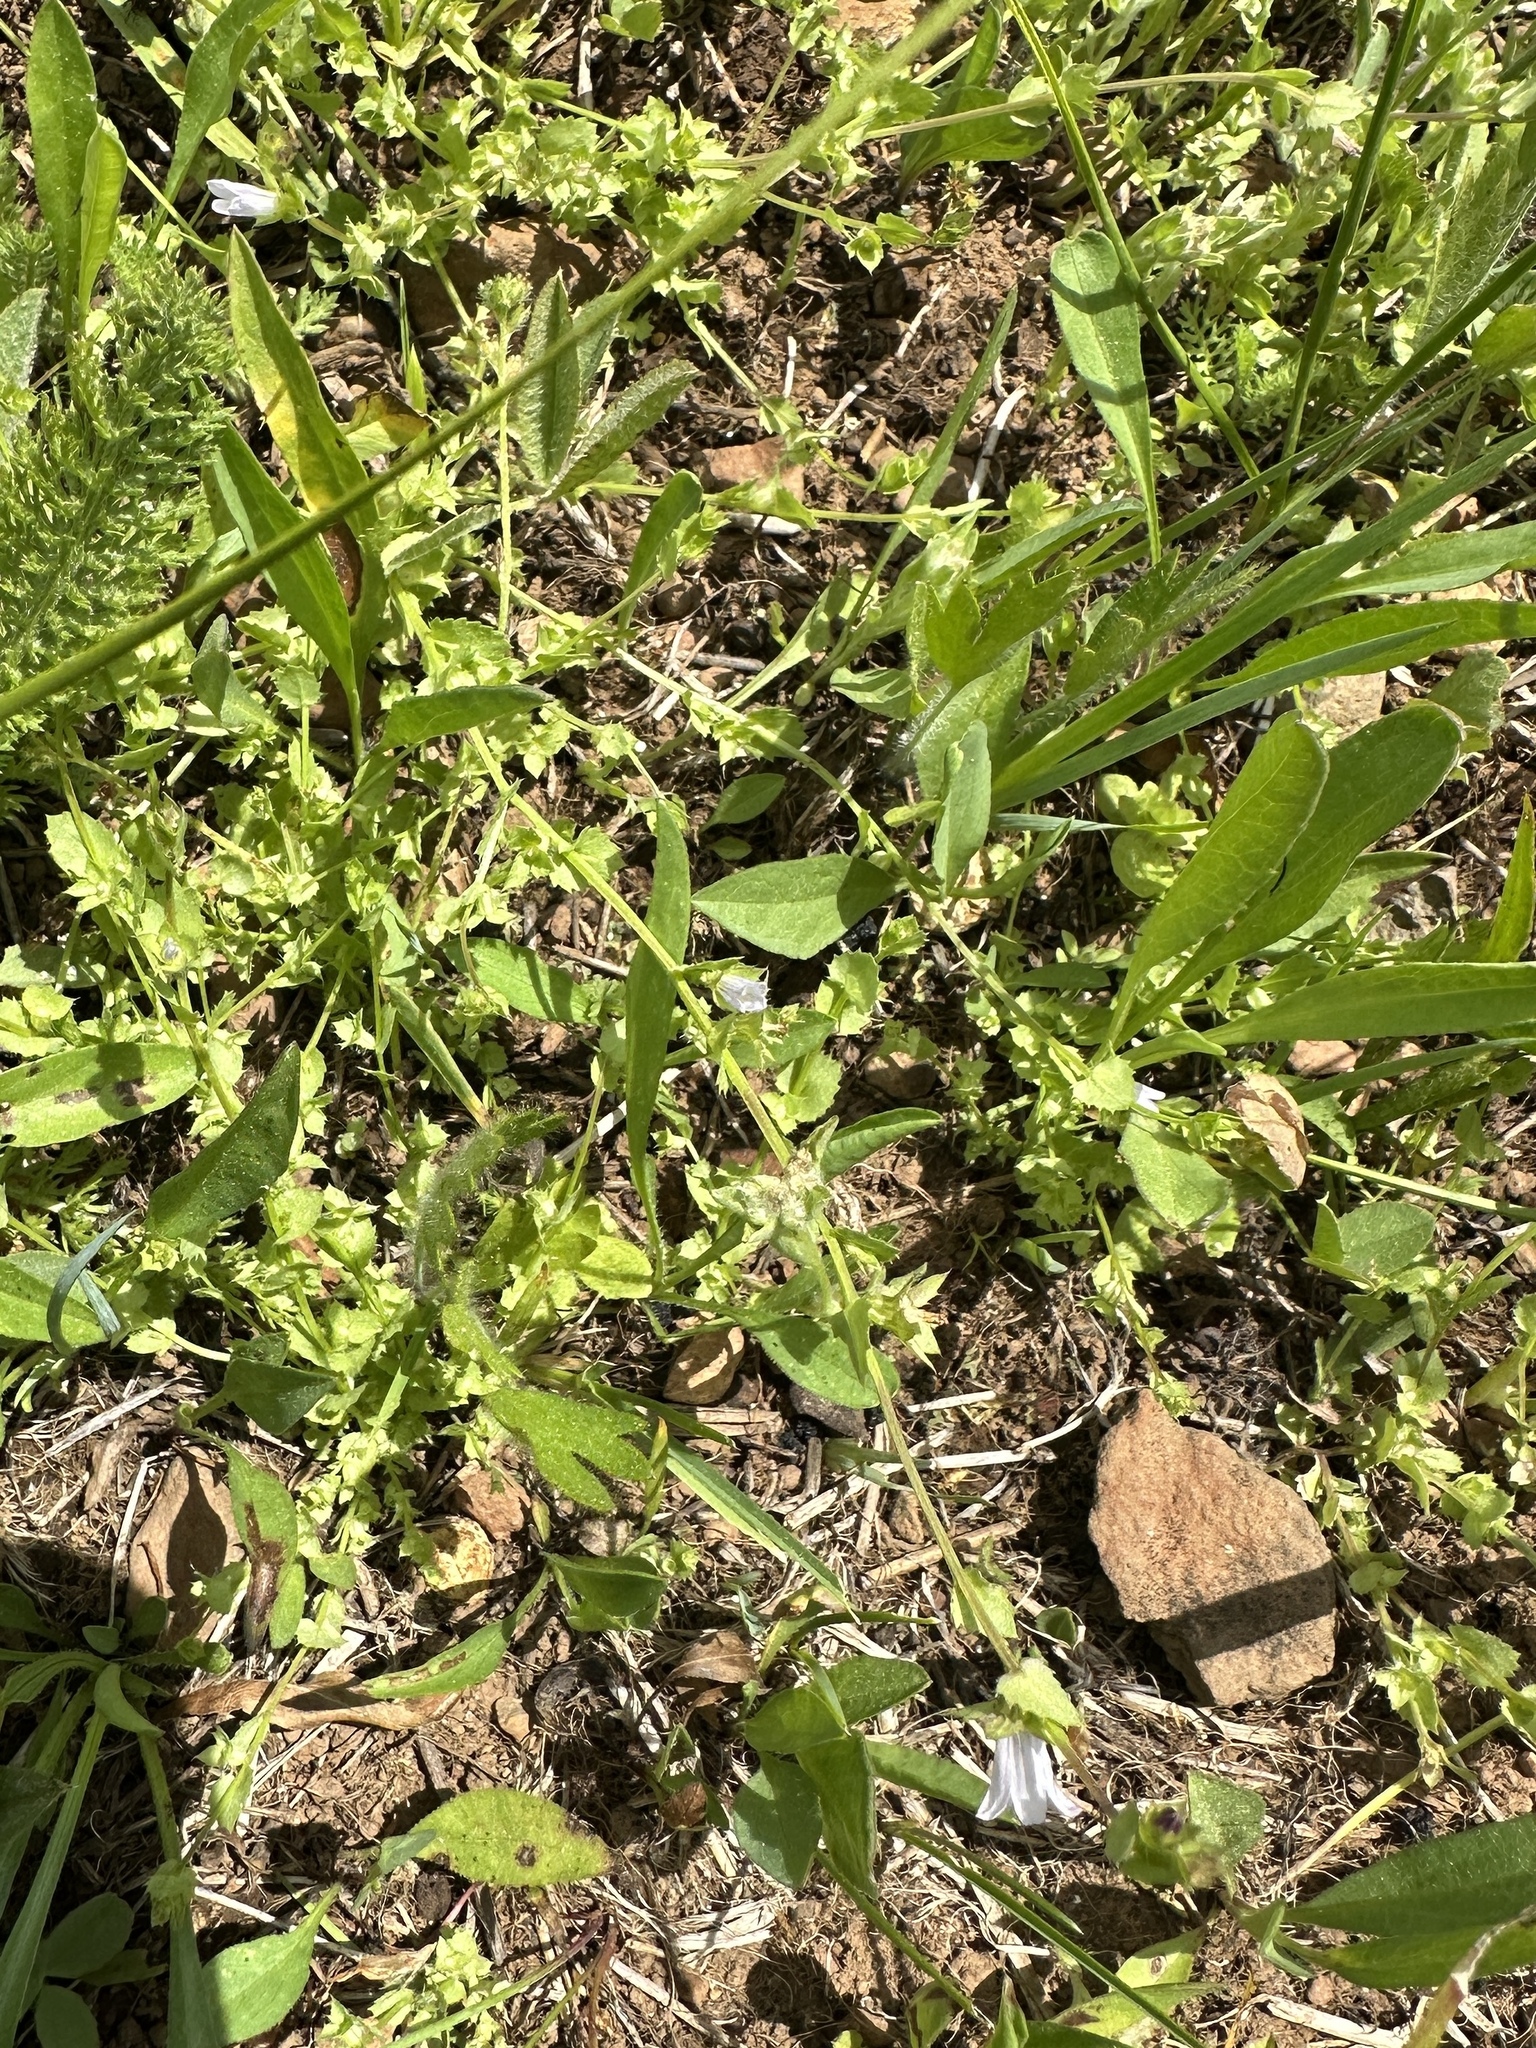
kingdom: Plantae
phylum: Tracheophyta
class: Magnoliopsida
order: Asterales
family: Campanulaceae
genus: Heterocodon
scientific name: Heterocodon rariflorum
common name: Rareflower heterocodon
